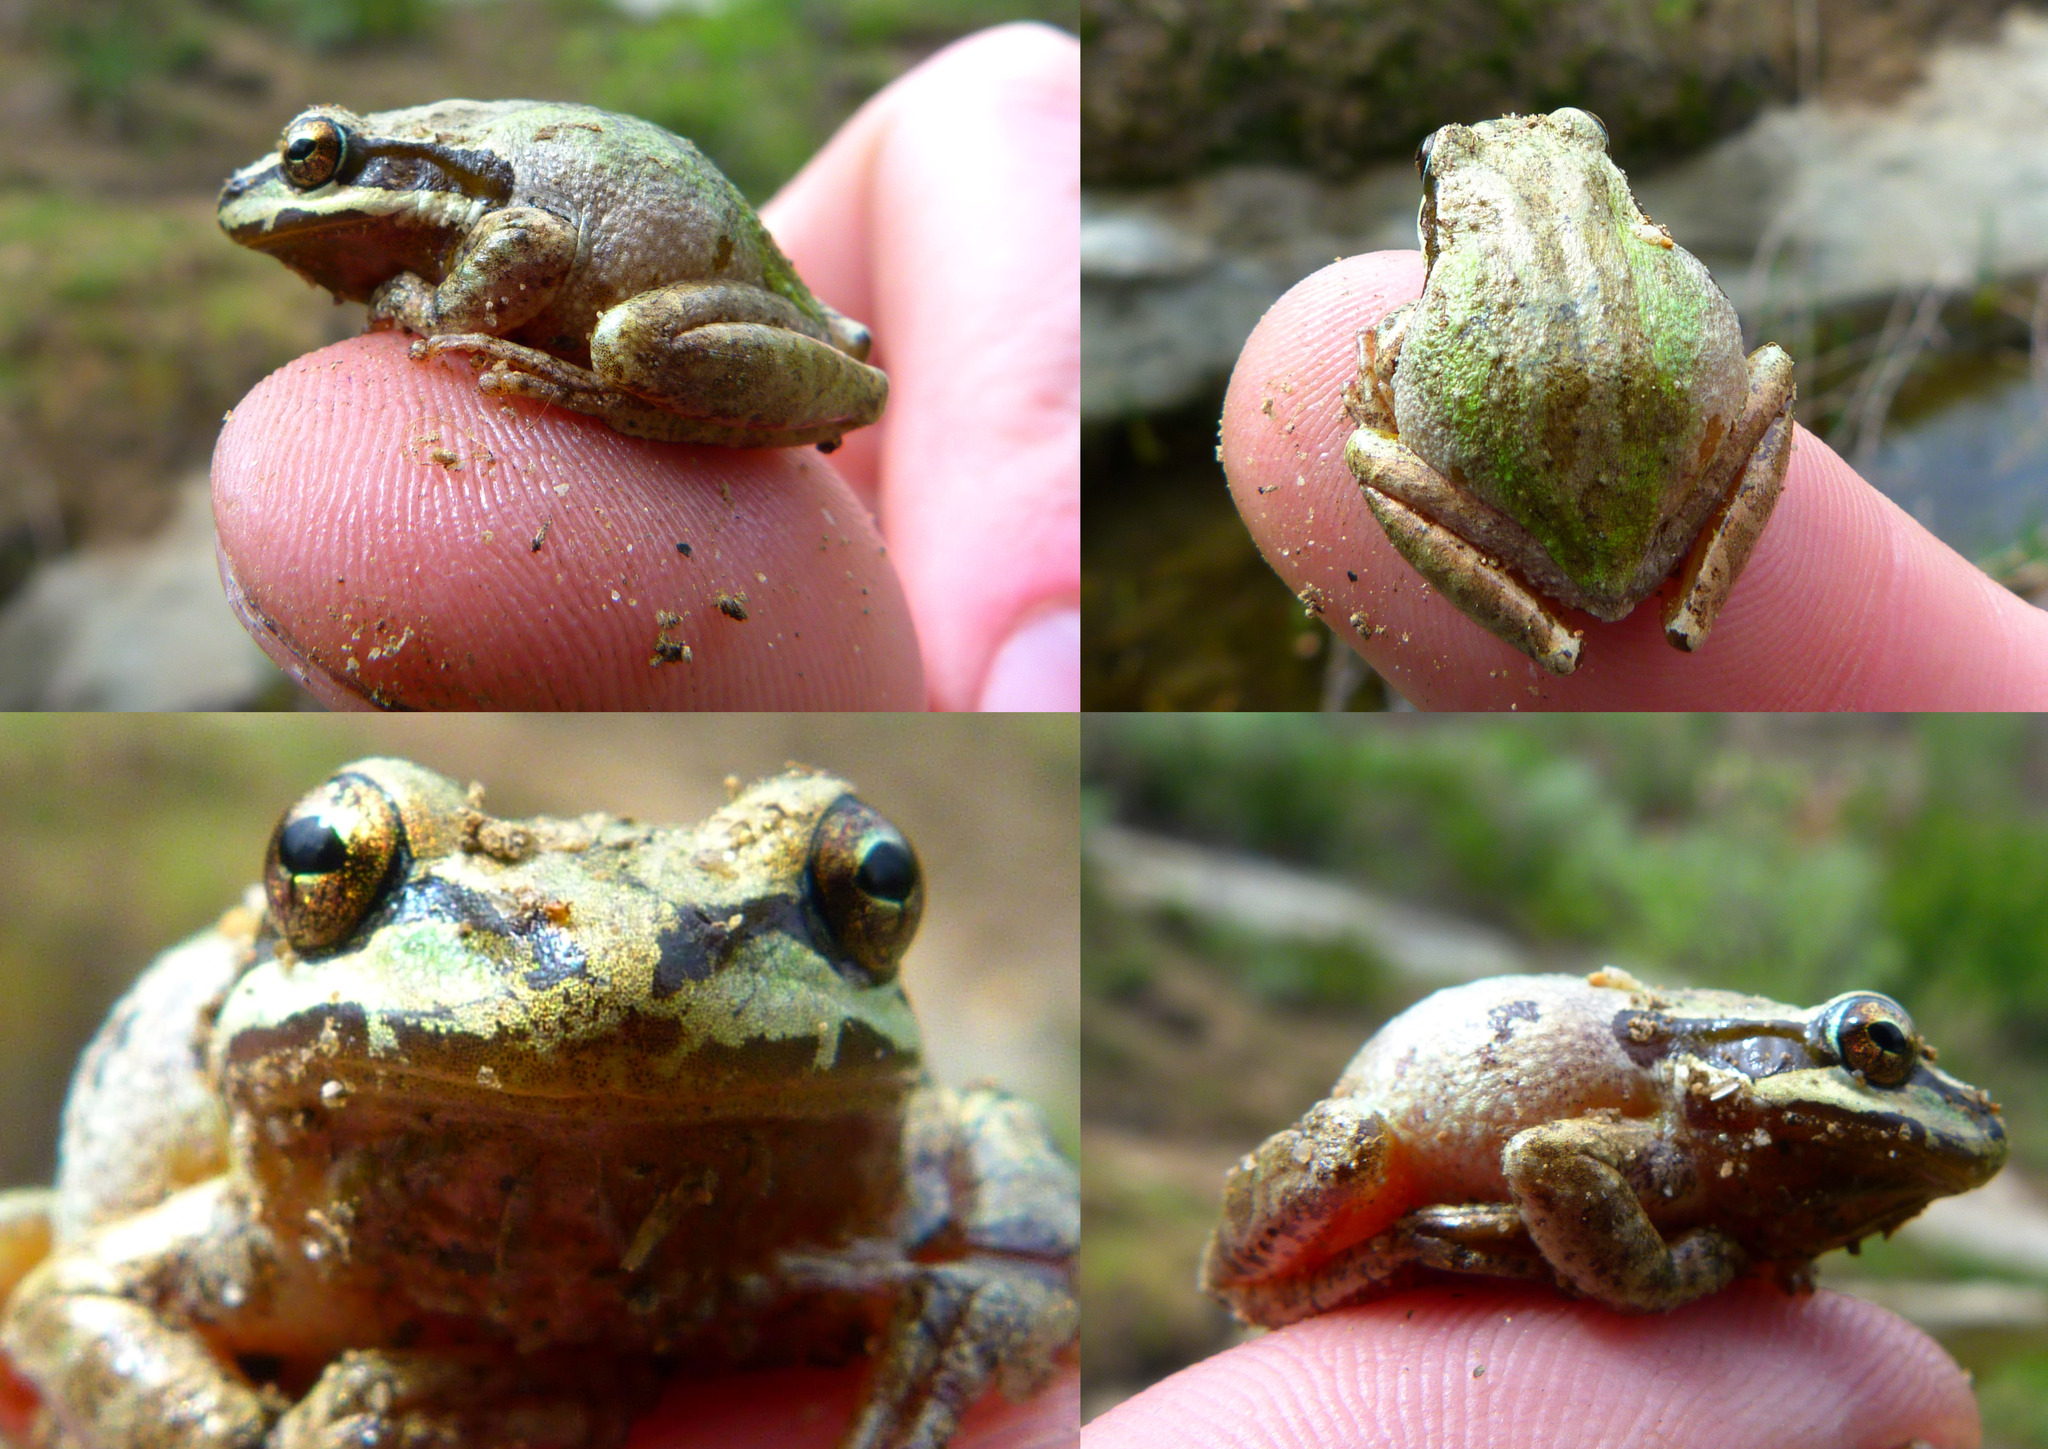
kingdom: Animalia
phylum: Chordata
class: Amphibia
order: Anura
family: Hylidae
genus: Pseudacris
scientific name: Pseudacris regilla
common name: Pacific chorus frog
